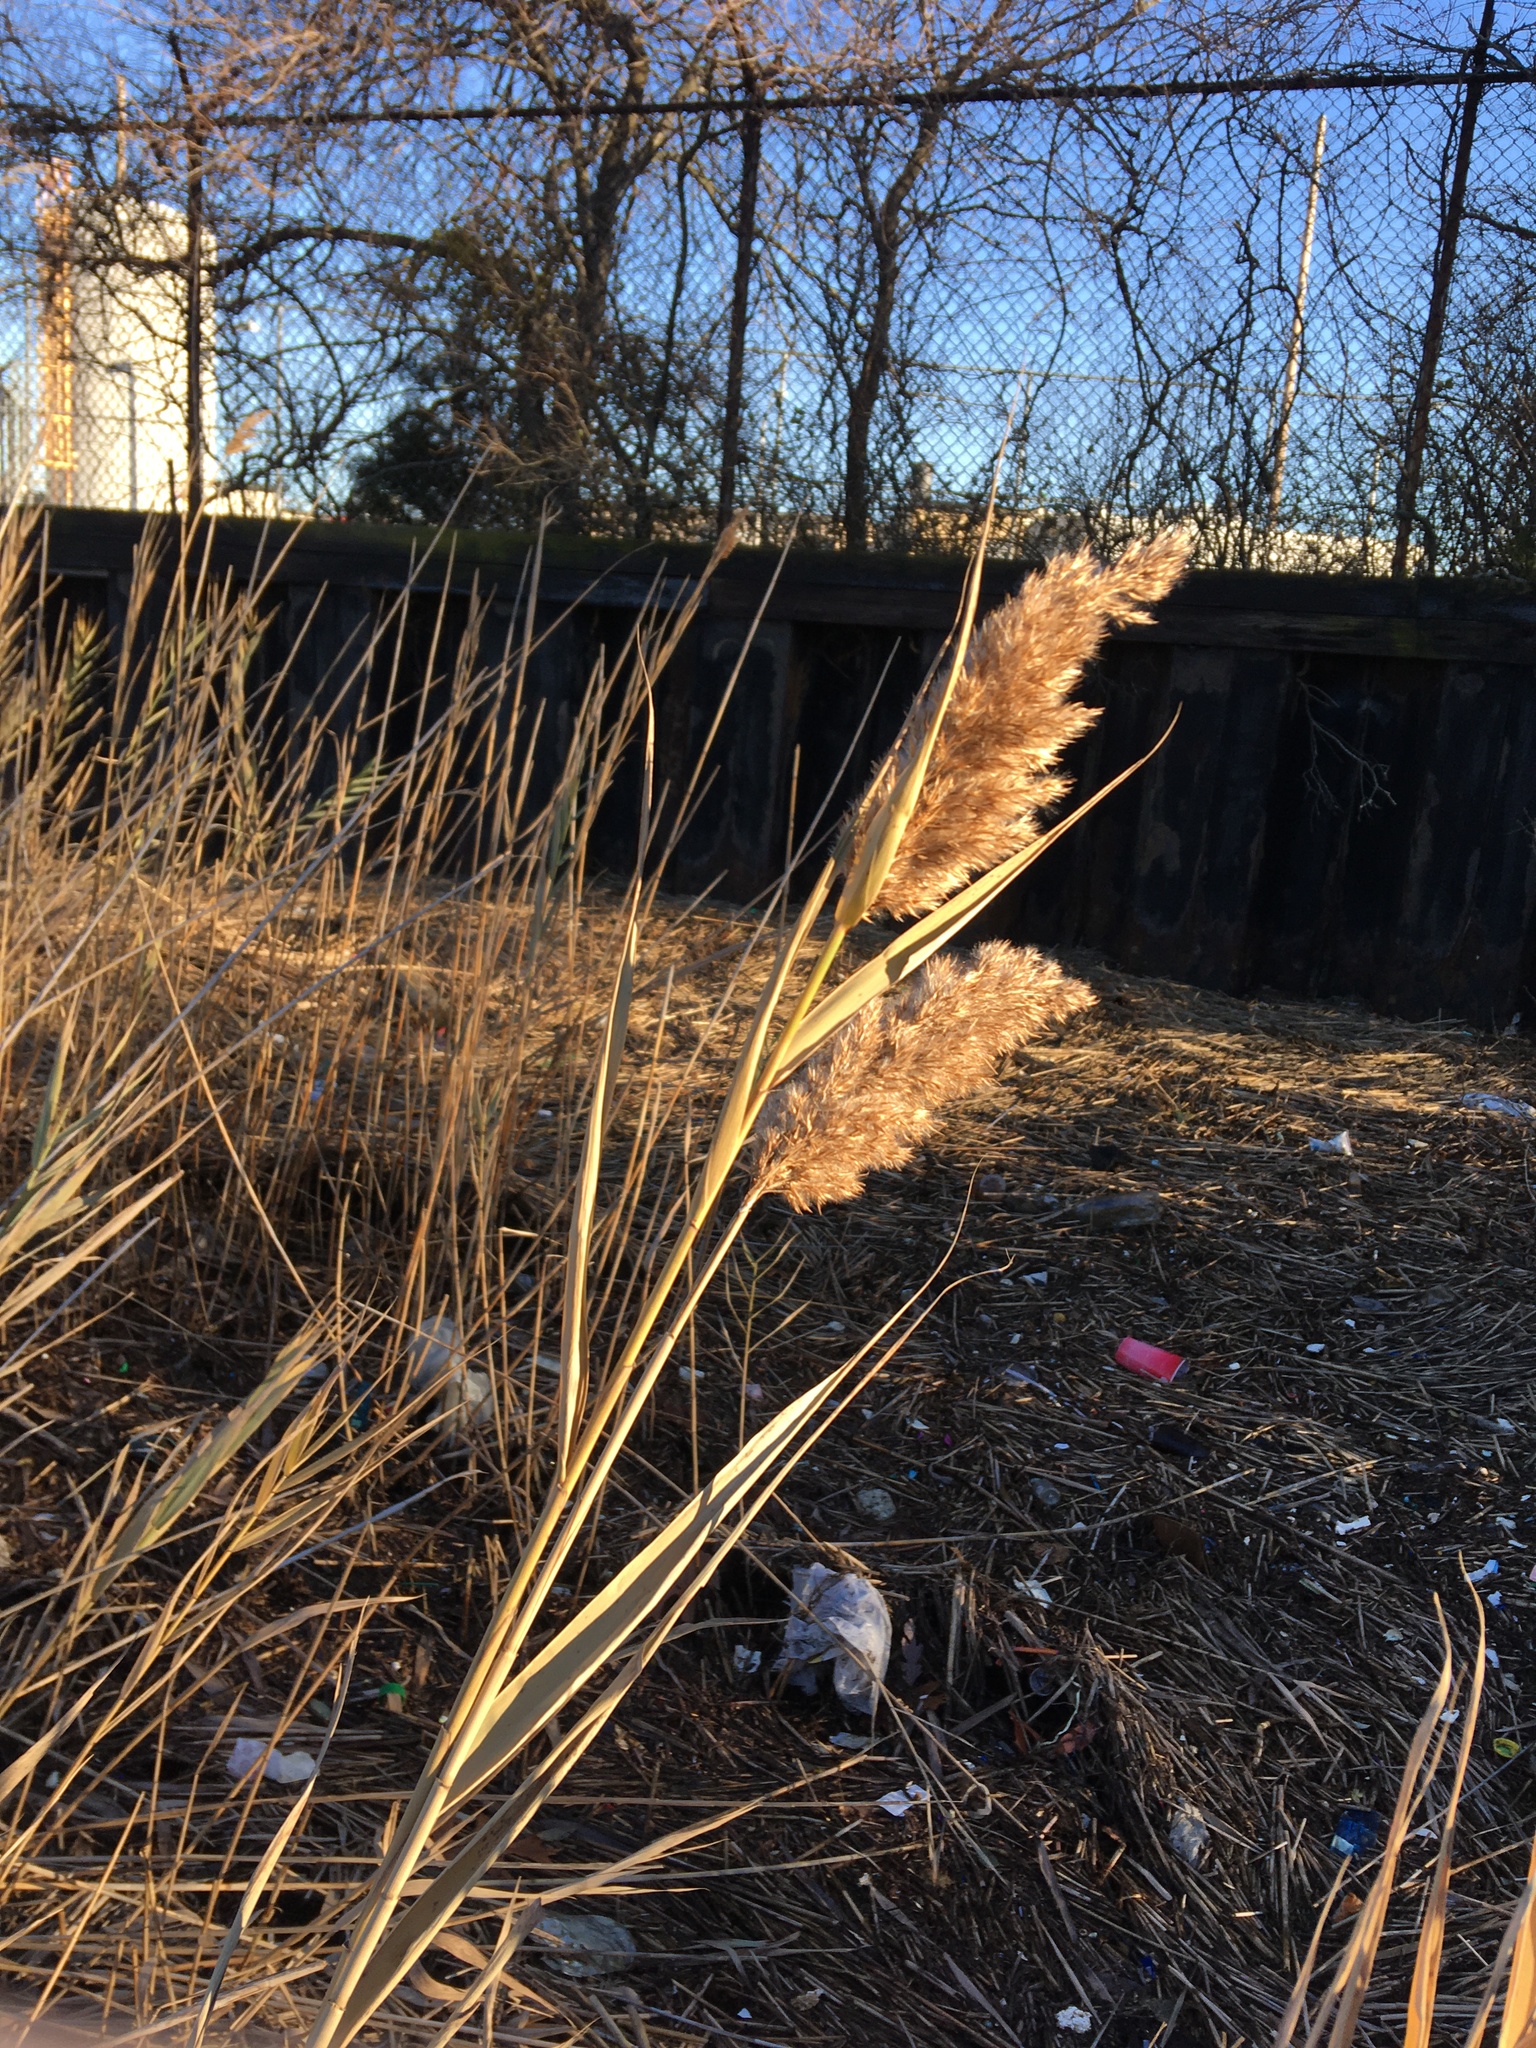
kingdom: Plantae
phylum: Tracheophyta
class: Liliopsida
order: Poales
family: Poaceae
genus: Phragmites
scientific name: Phragmites australis
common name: Common reed
